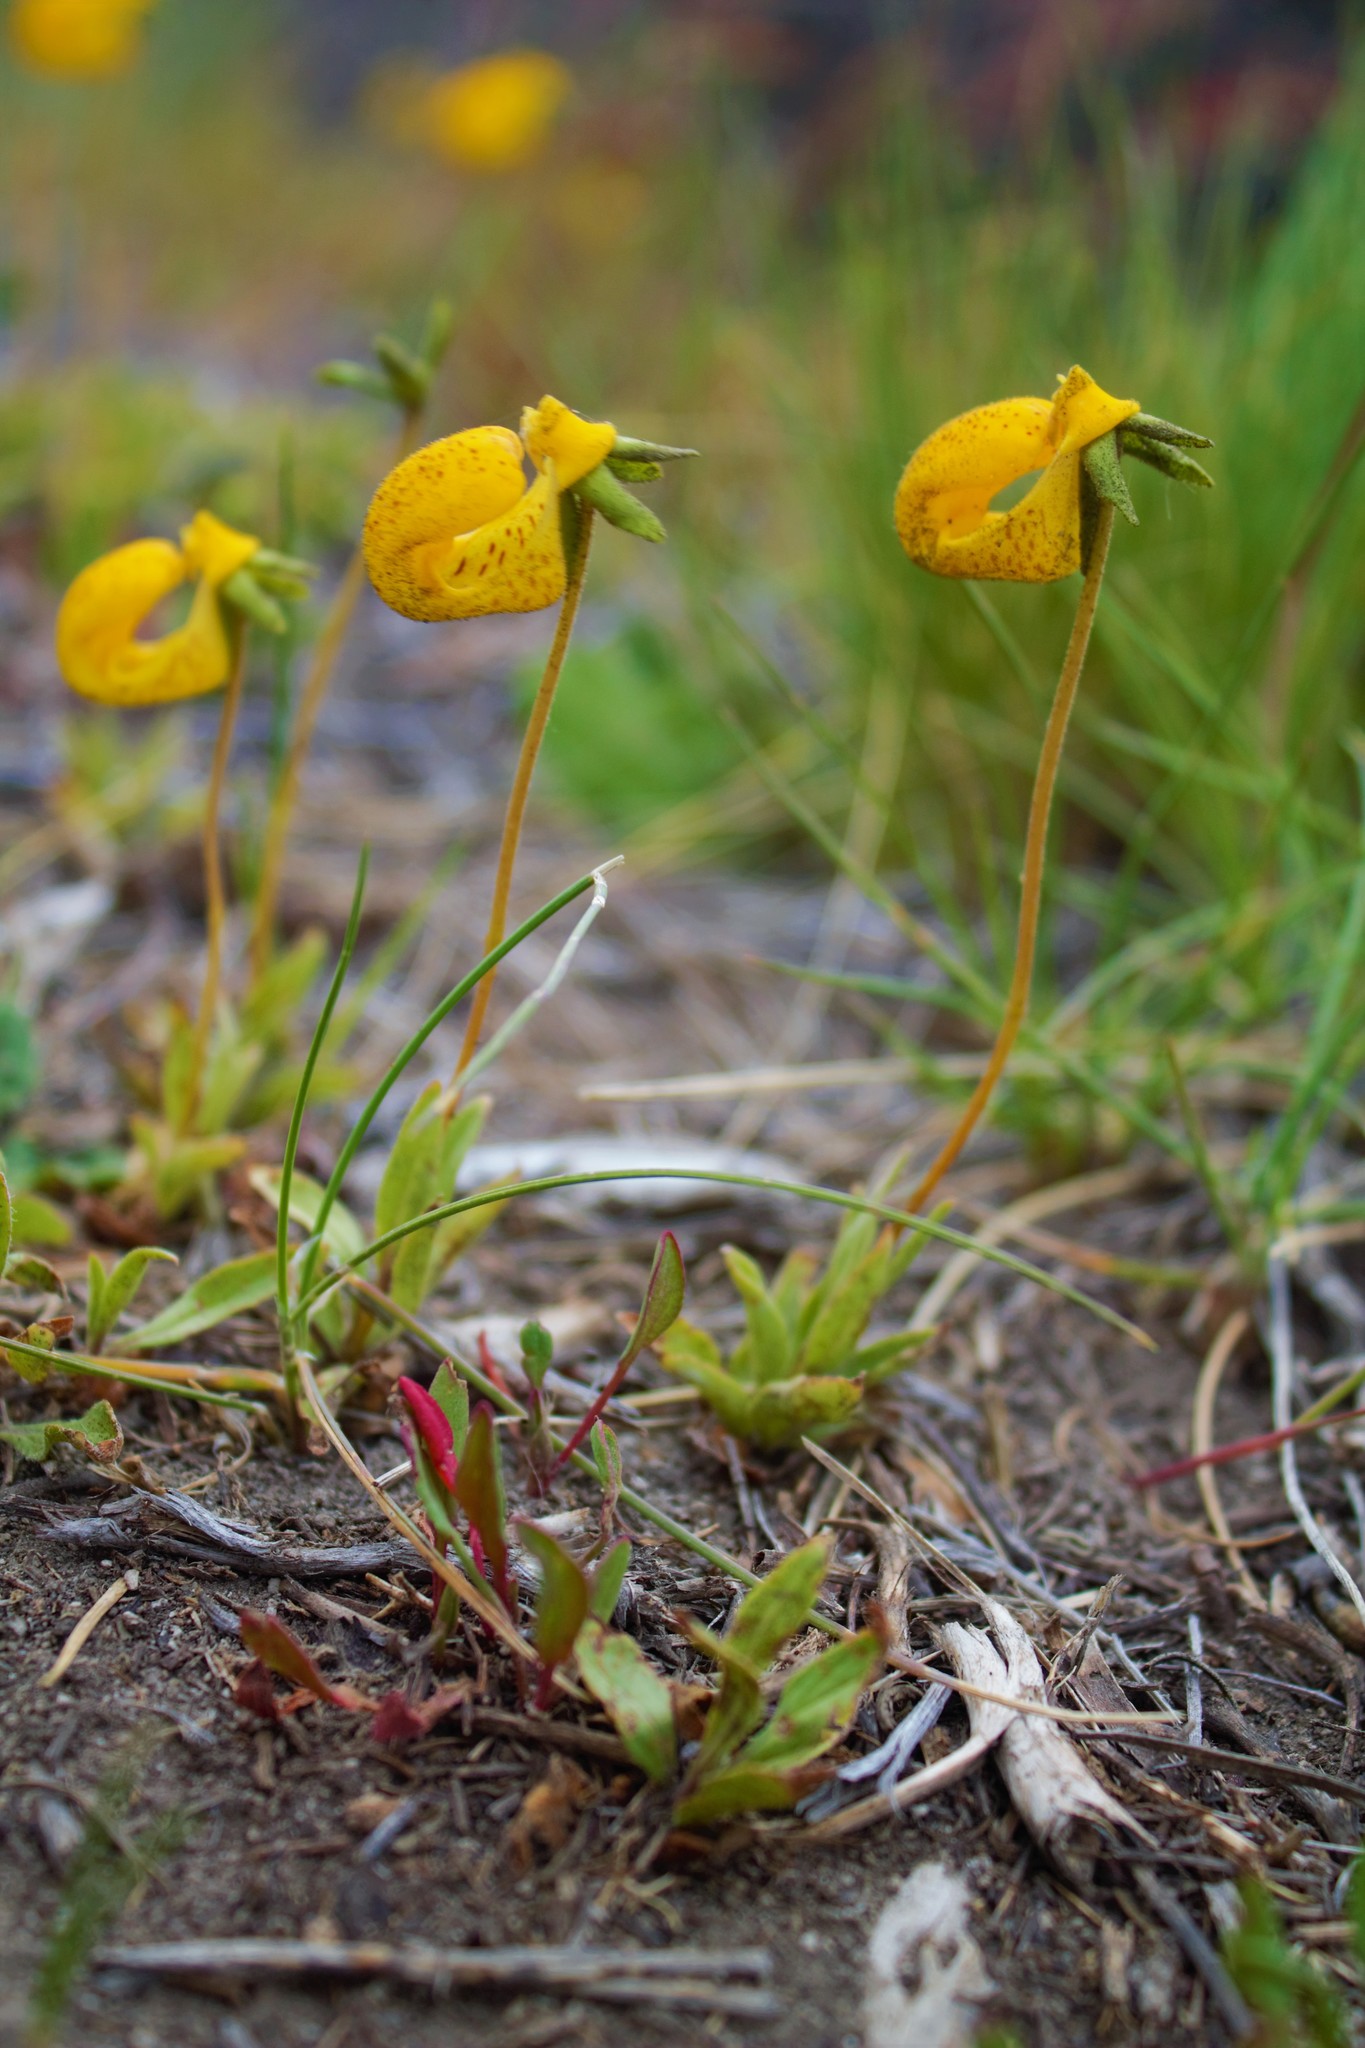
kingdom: Plantae
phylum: Tracheophyta
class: Magnoliopsida
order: Lamiales
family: Calceolariaceae
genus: Calceolaria
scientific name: Calceolaria polyrhiza
